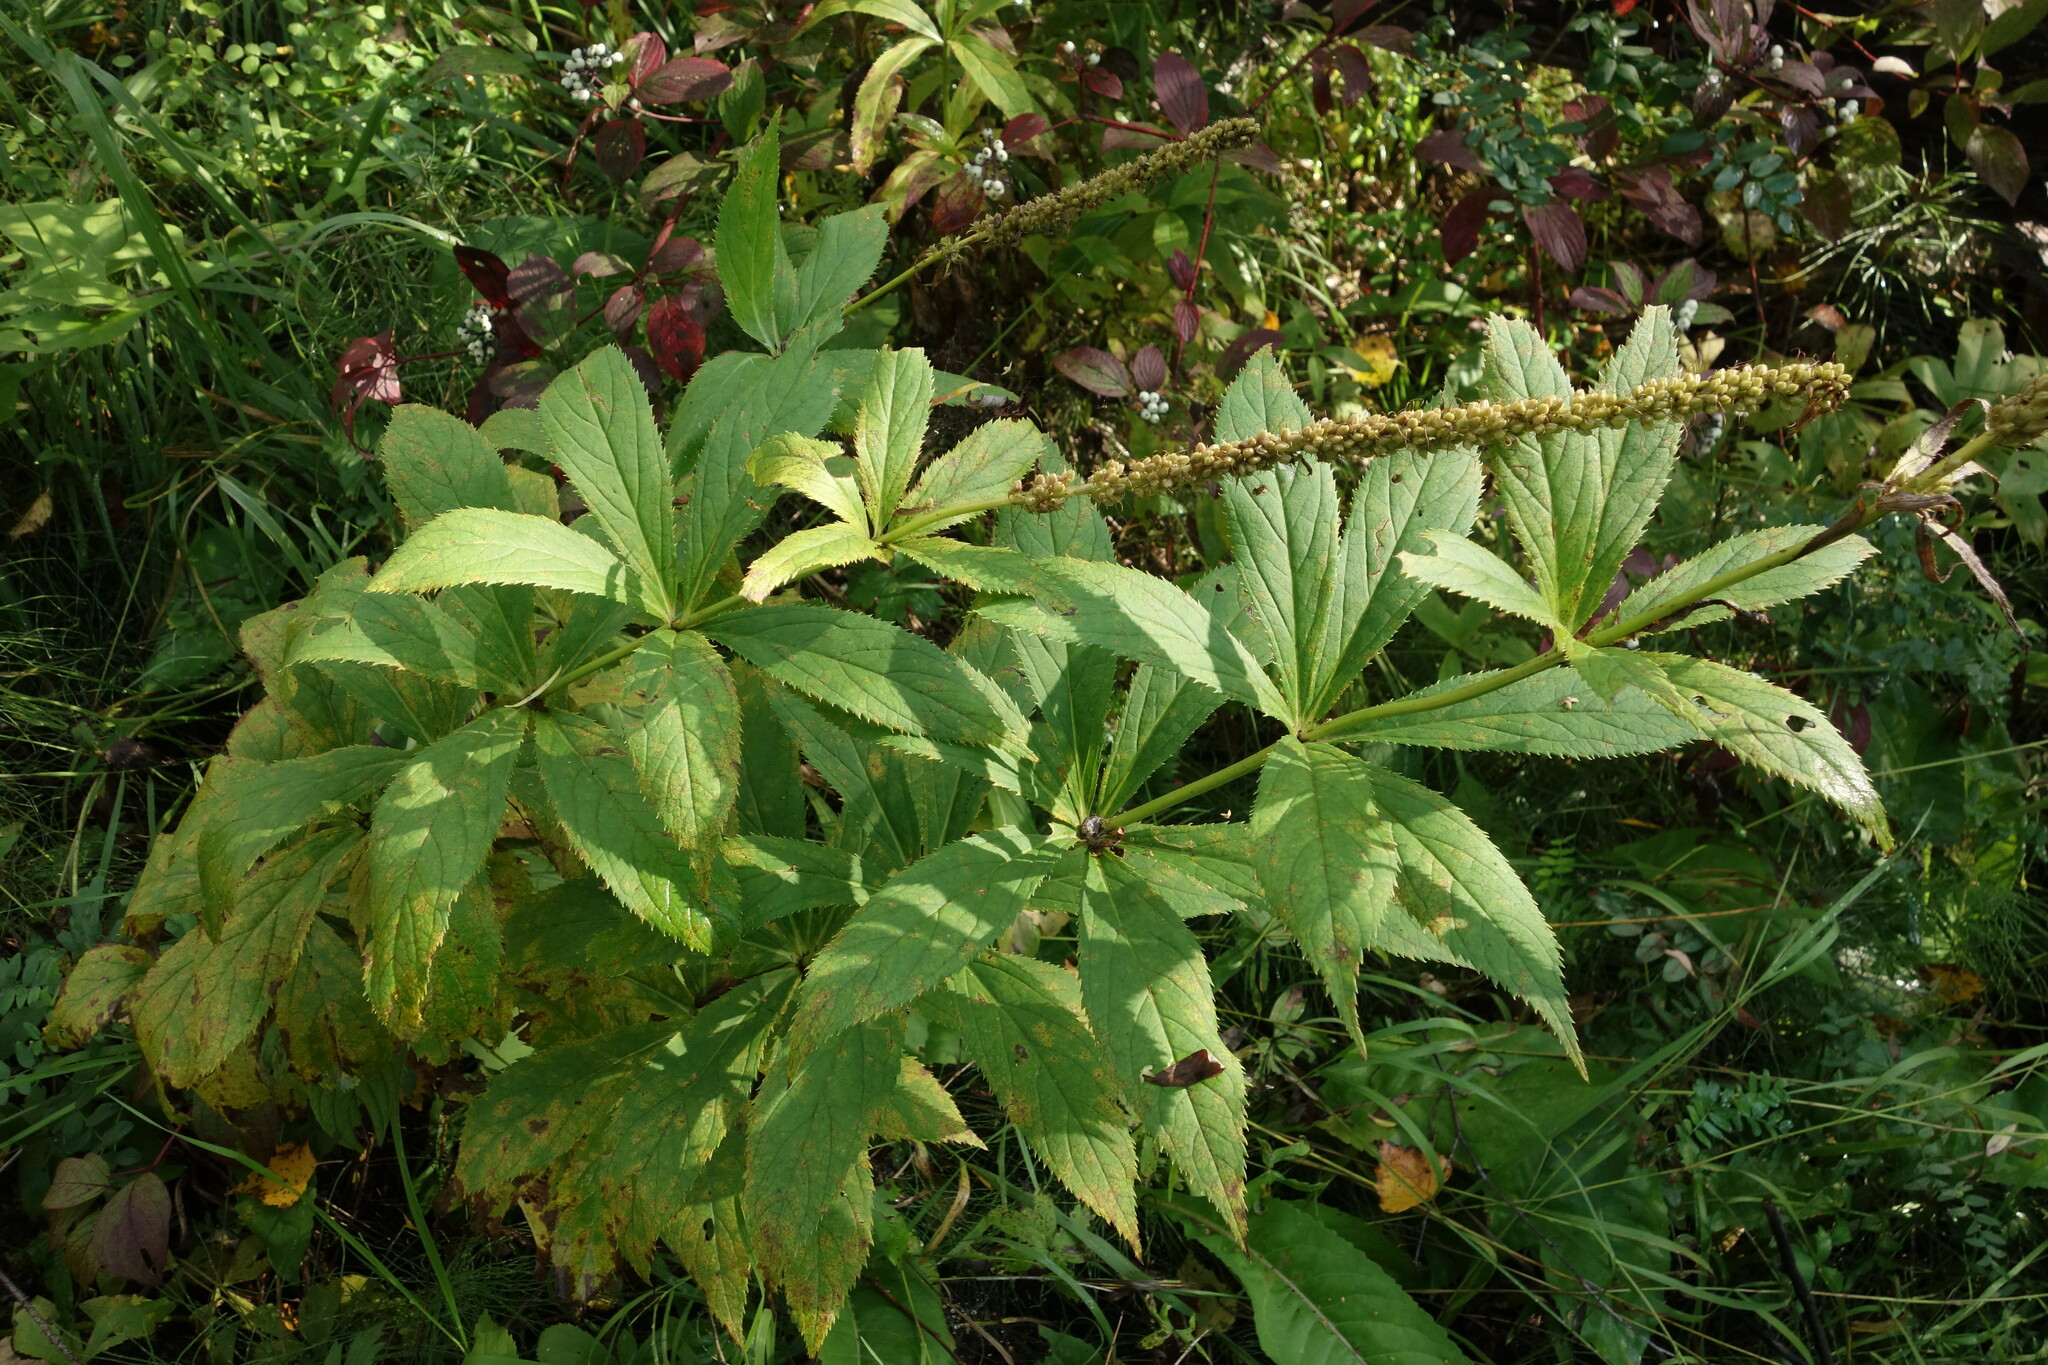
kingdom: Plantae
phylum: Tracheophyta
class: Magnoliopsida
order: Lamiales
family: Plantaginaceae
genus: Veronicastrum
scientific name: Veronicastrum sibiricum
